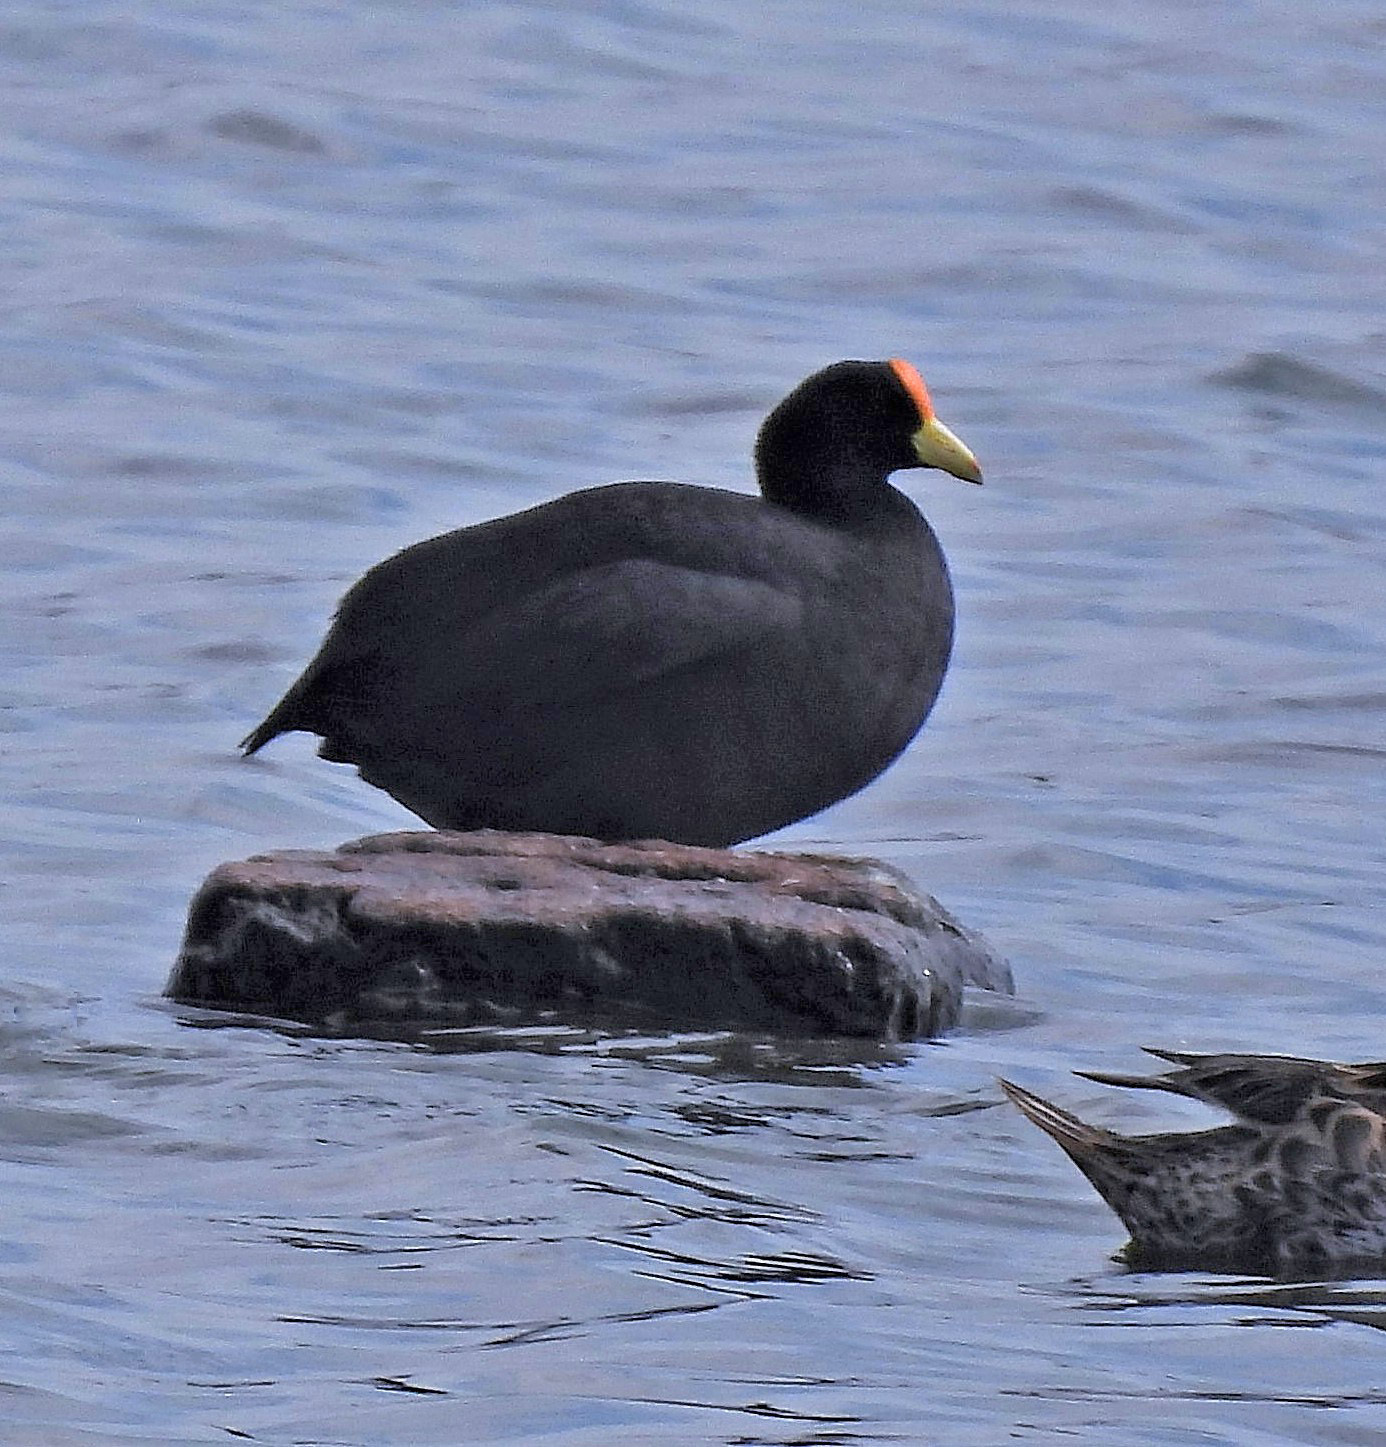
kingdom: Animalia
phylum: Chordata
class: Aves
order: Gruiformes
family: Rallidae
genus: Fulica
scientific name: Fulica leucoptera
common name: White-winged coot
